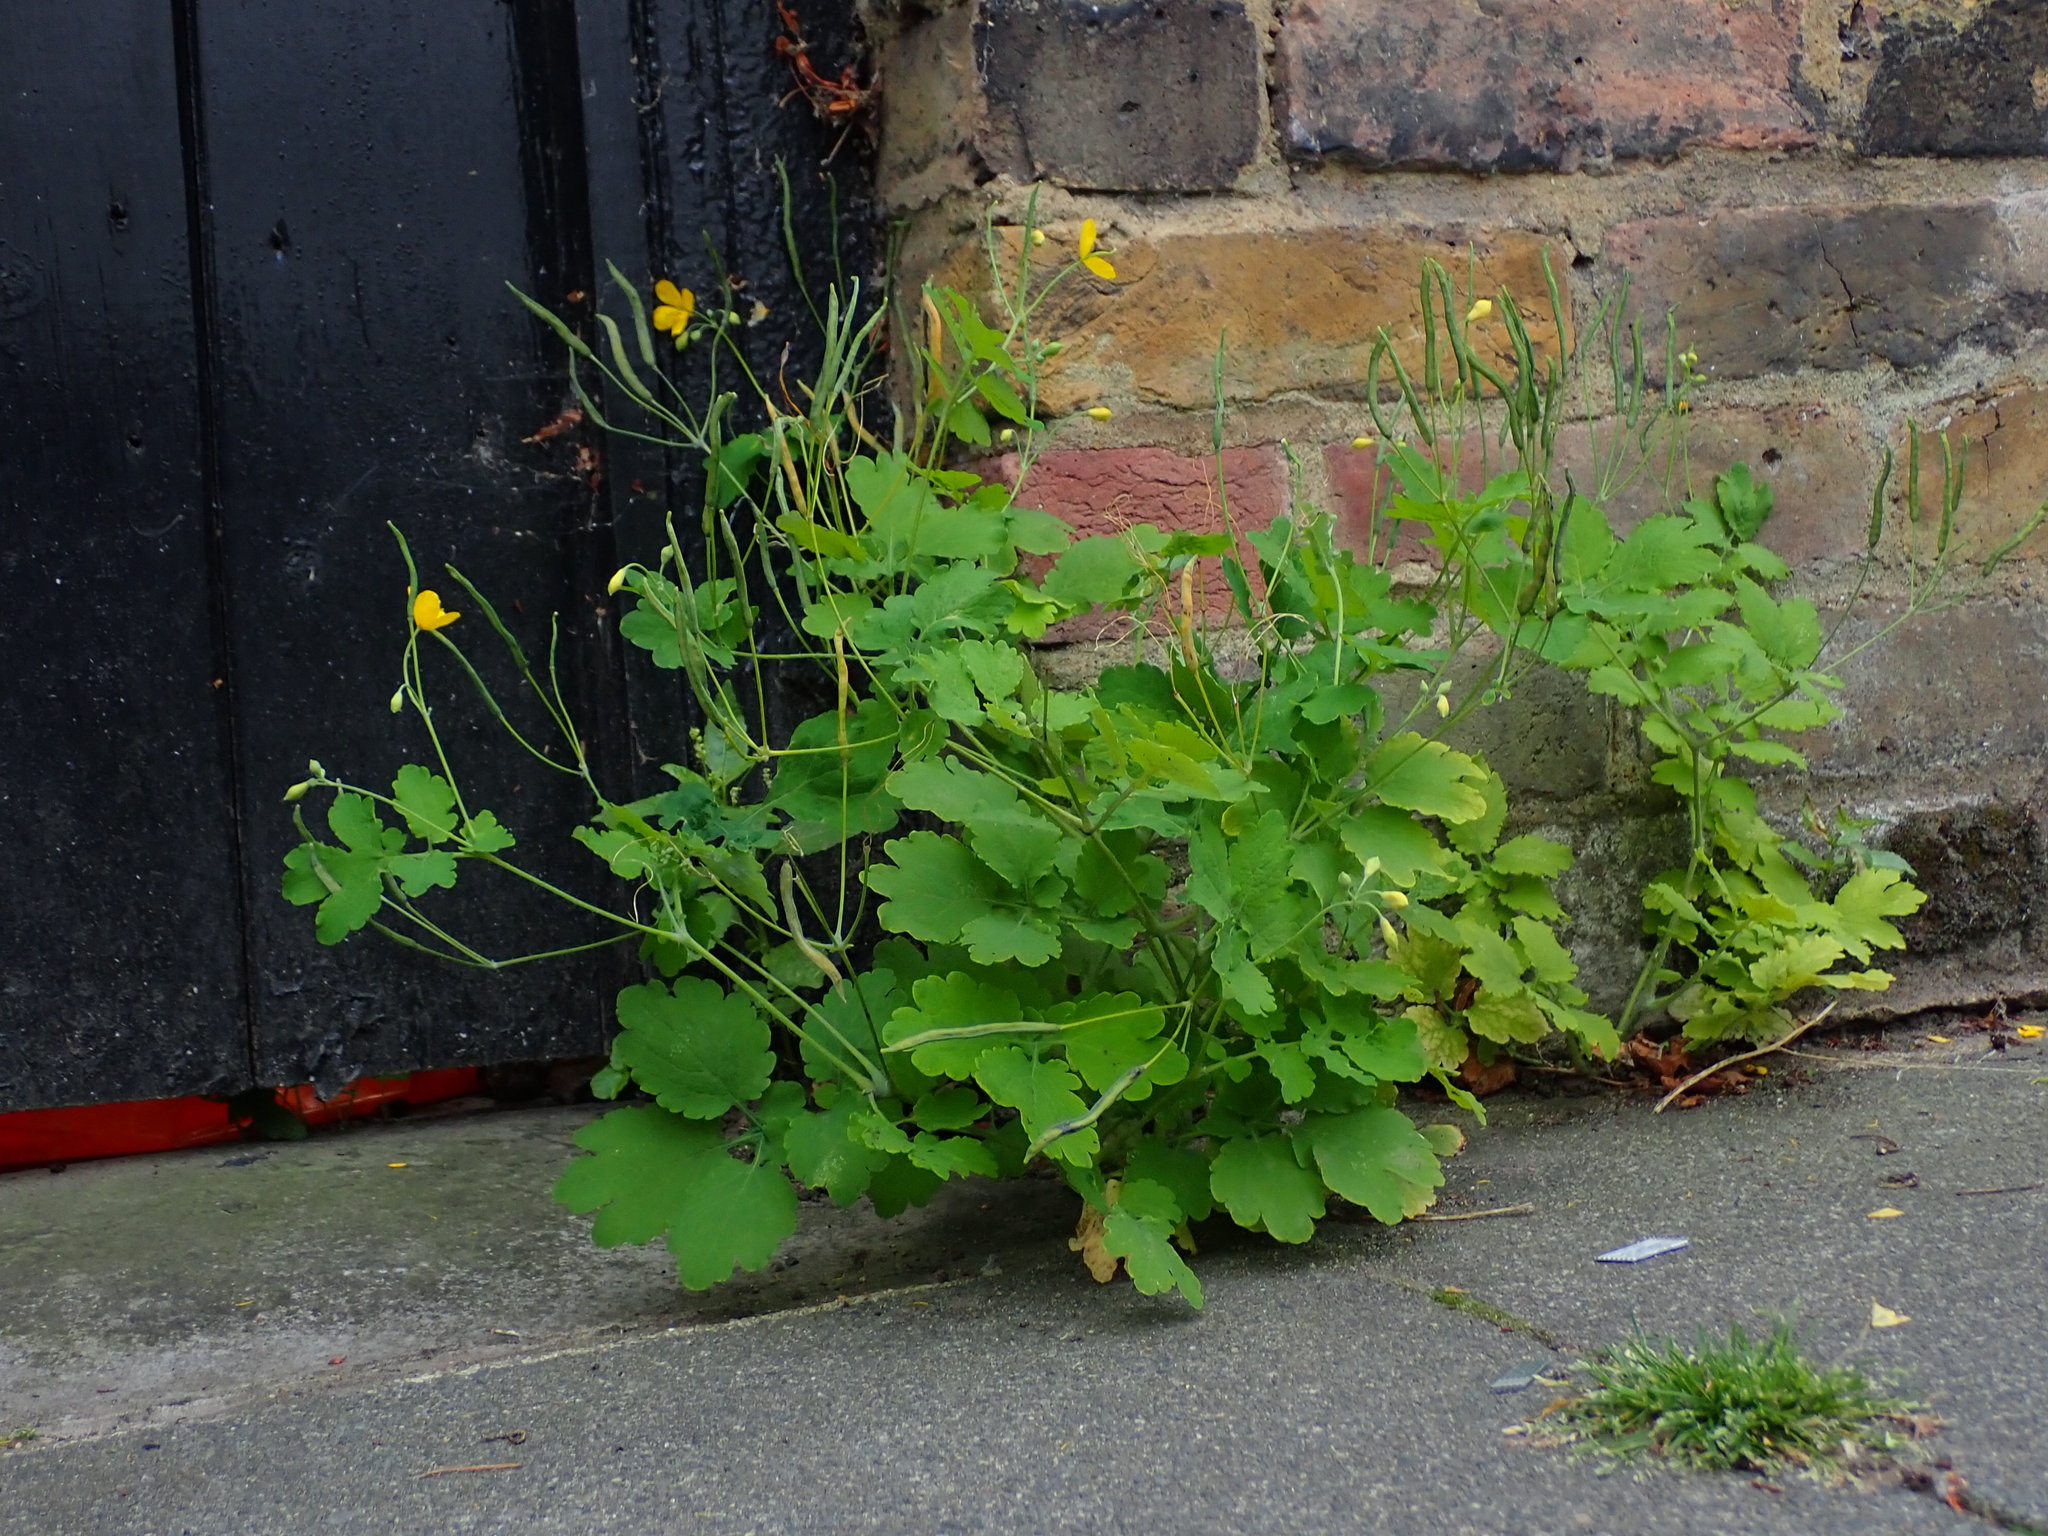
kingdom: Plantae
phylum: Tracheophyta
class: Magnoliopsida
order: Ranunculales
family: Papaveraceae
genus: Chelidonium
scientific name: Chelidonium majus
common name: Greater celandine
